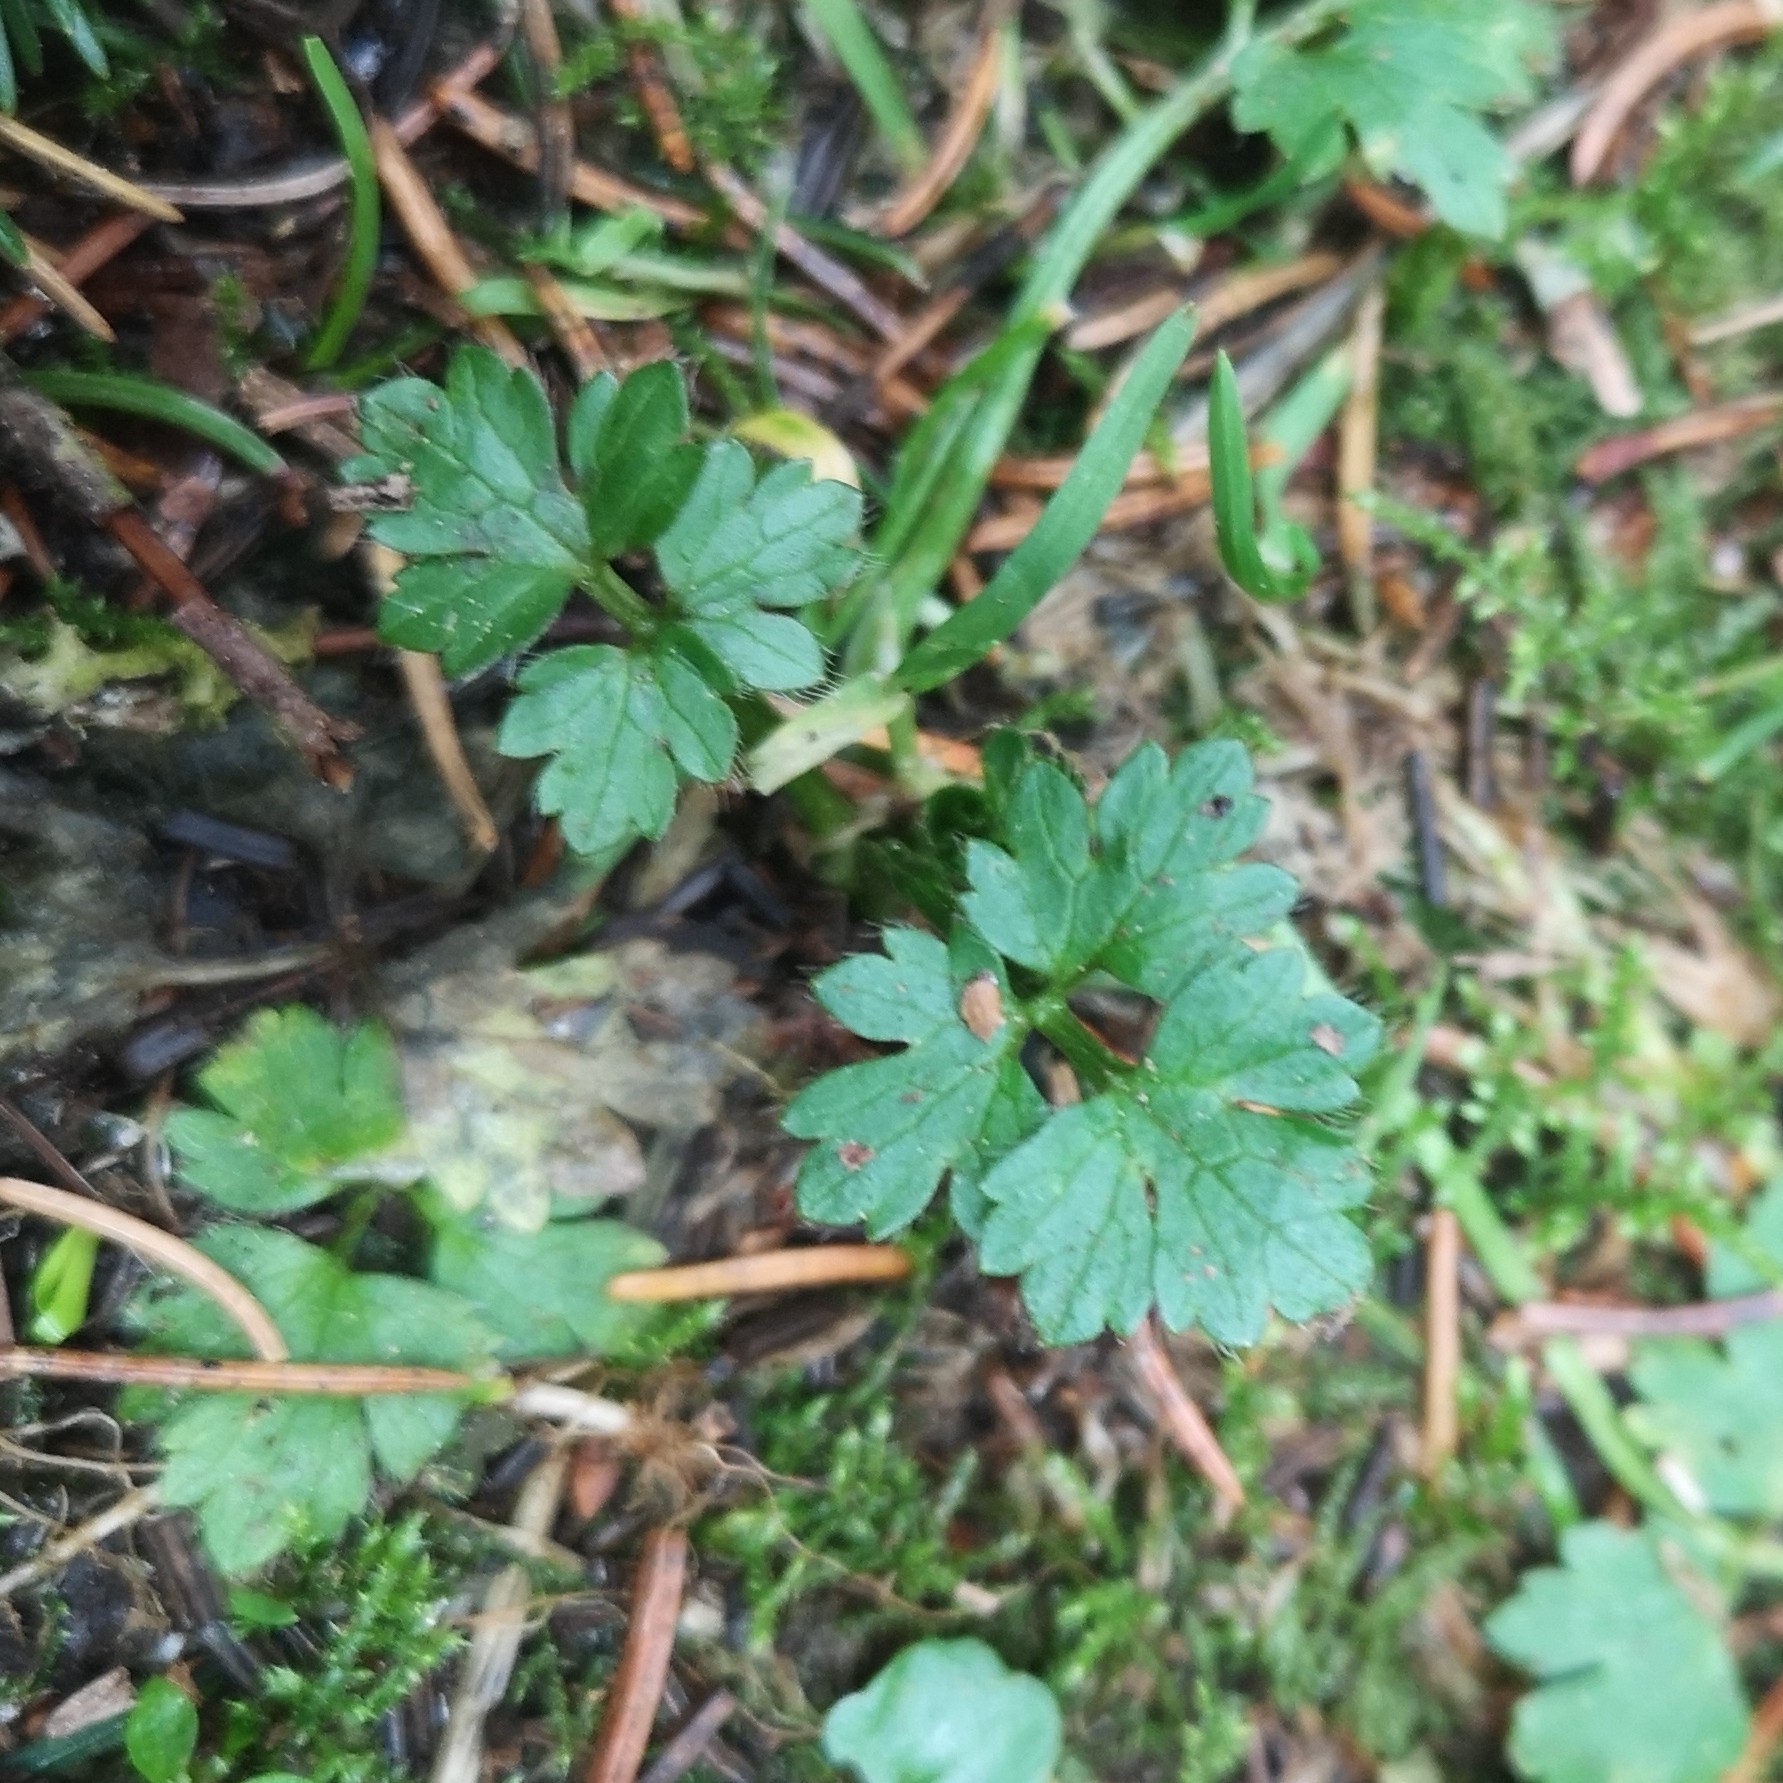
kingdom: Plantae
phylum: Tracheophyta
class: Magnoliopsida
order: Ranunculales
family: Ranunculaceae
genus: Ranunculus
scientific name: Ranunculus repens
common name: Creeping buttercup
